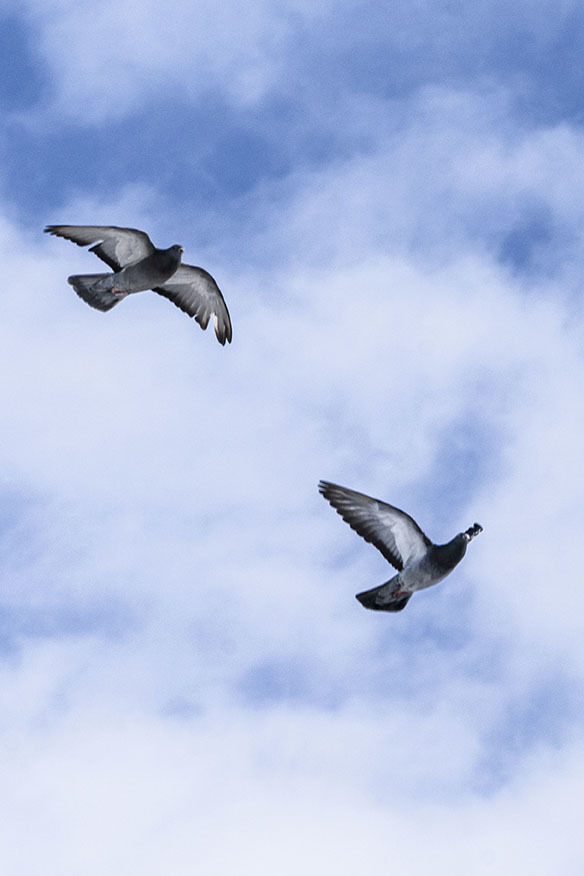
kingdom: Animalia
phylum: Chordata
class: Aves
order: Columbiformes
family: Columbidae
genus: Columba
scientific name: Columba livia
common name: Rock pigeon
